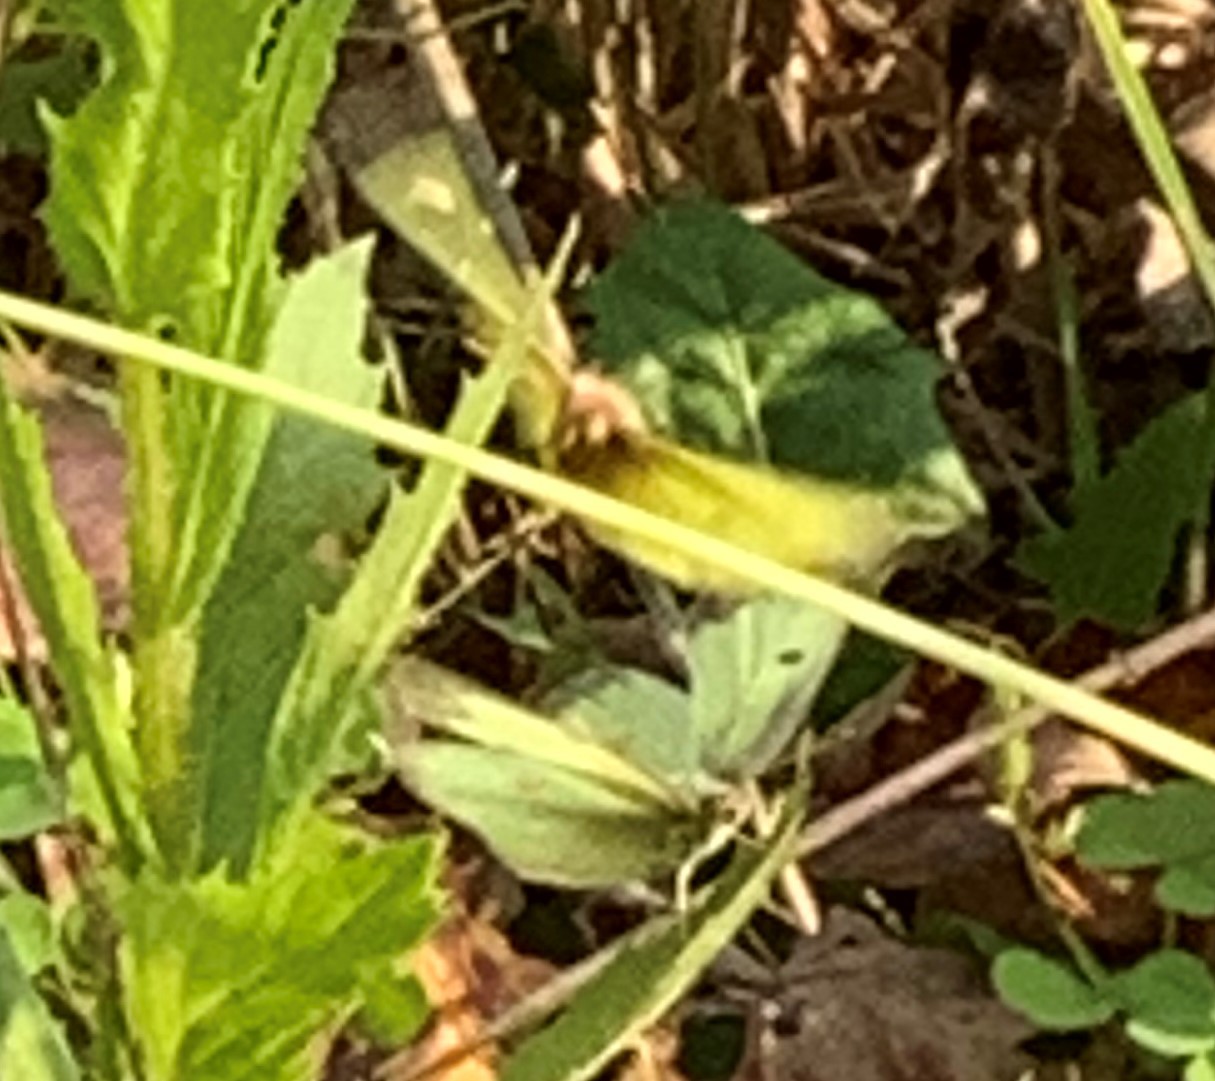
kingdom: Animalia
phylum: Arthropoda
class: Insecta
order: Lepidoptera
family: Pieridae
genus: Colias
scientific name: Colias philodice
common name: Clouded sulphur
